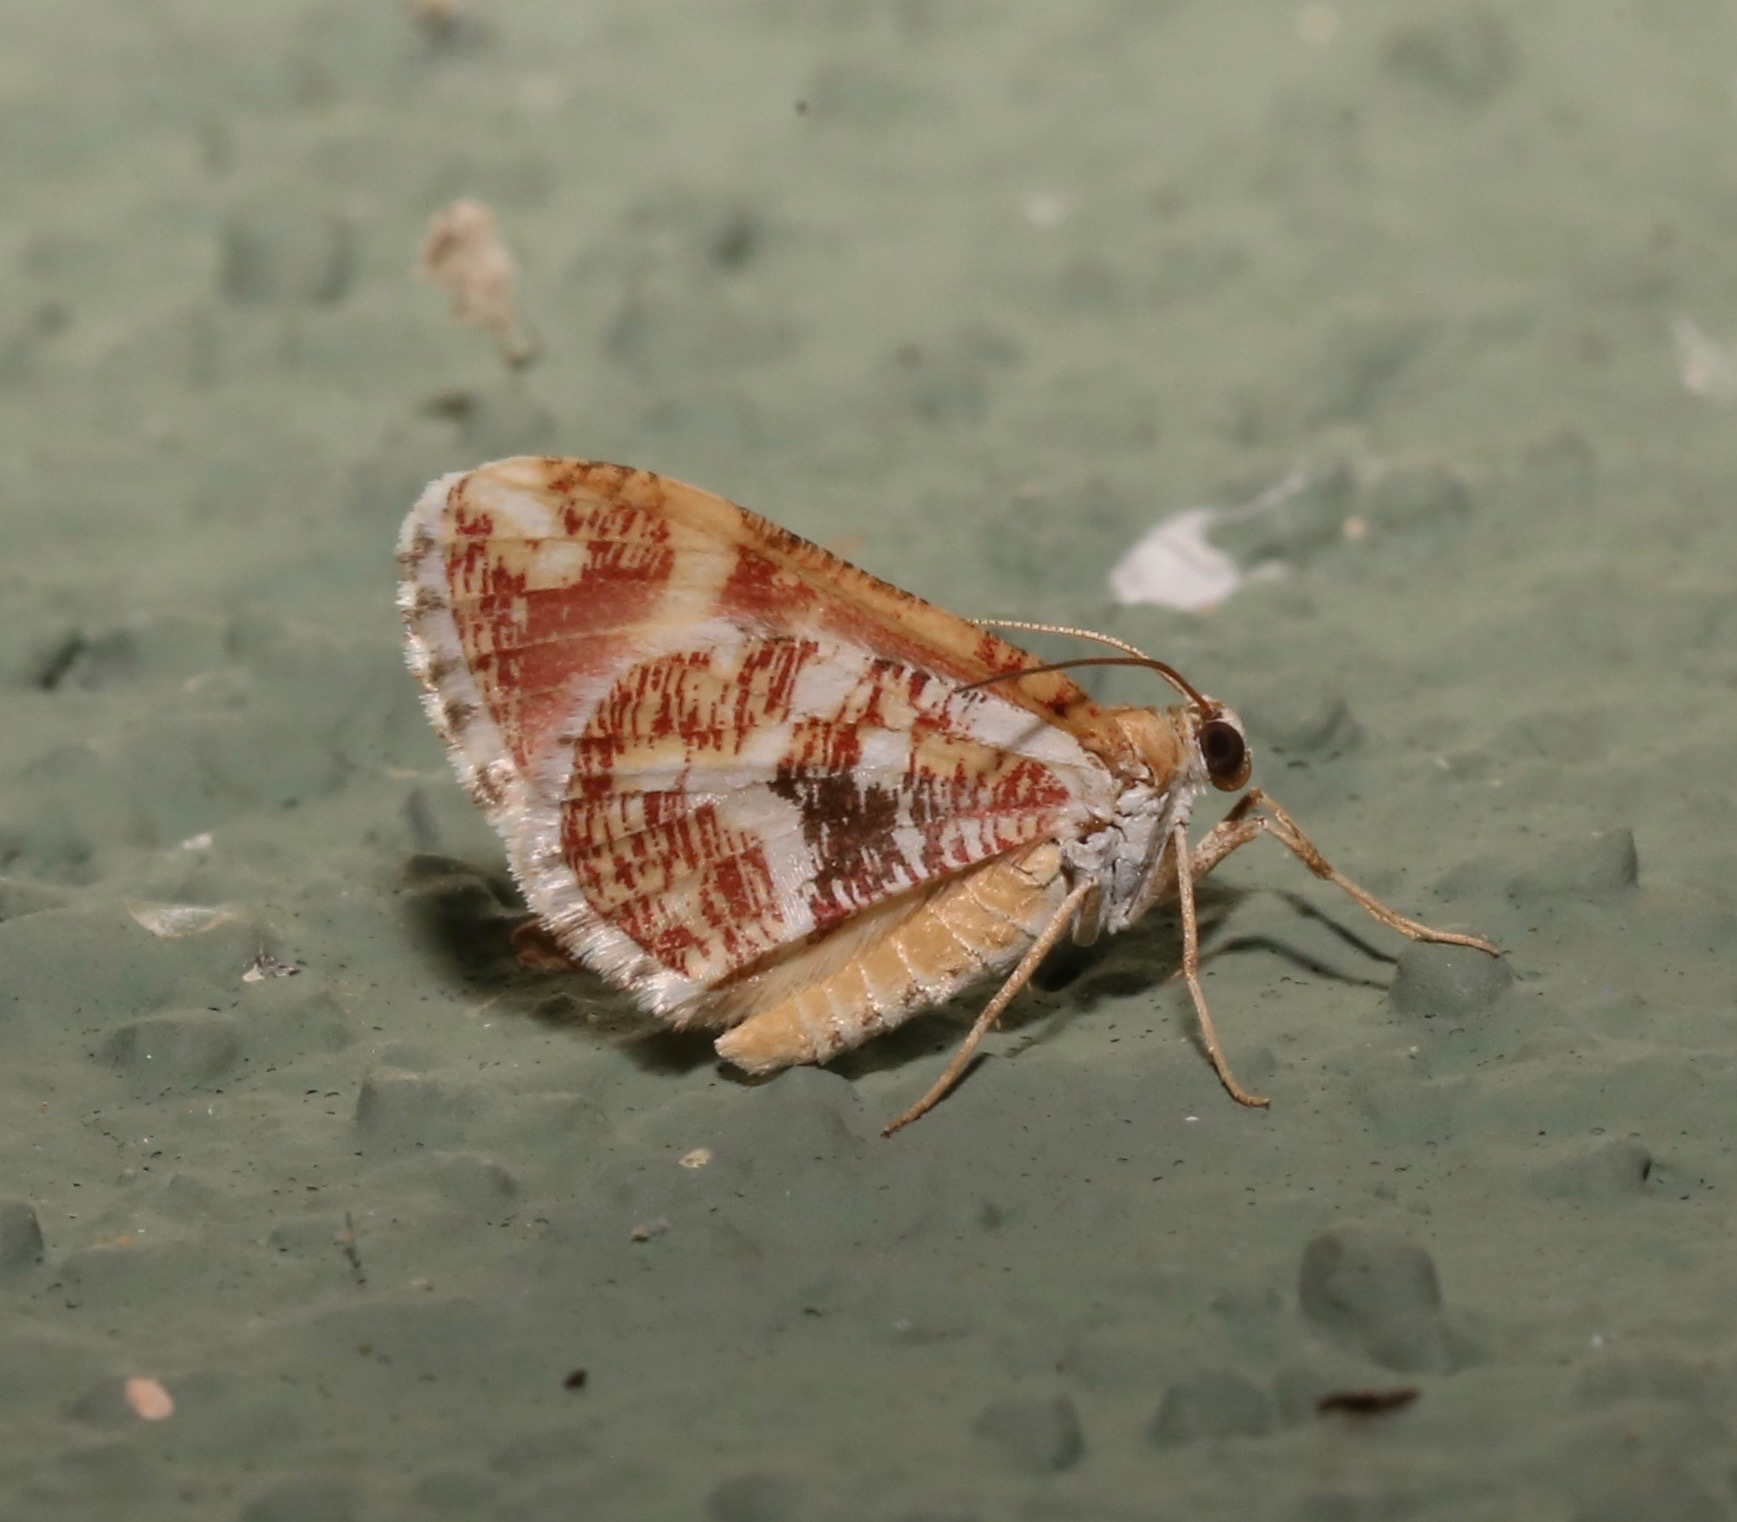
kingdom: Animalia
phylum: Arthropoda
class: Insecta
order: Lepidoptera
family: Geometridae
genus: Stamnodes
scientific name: Stamnodes formosata
